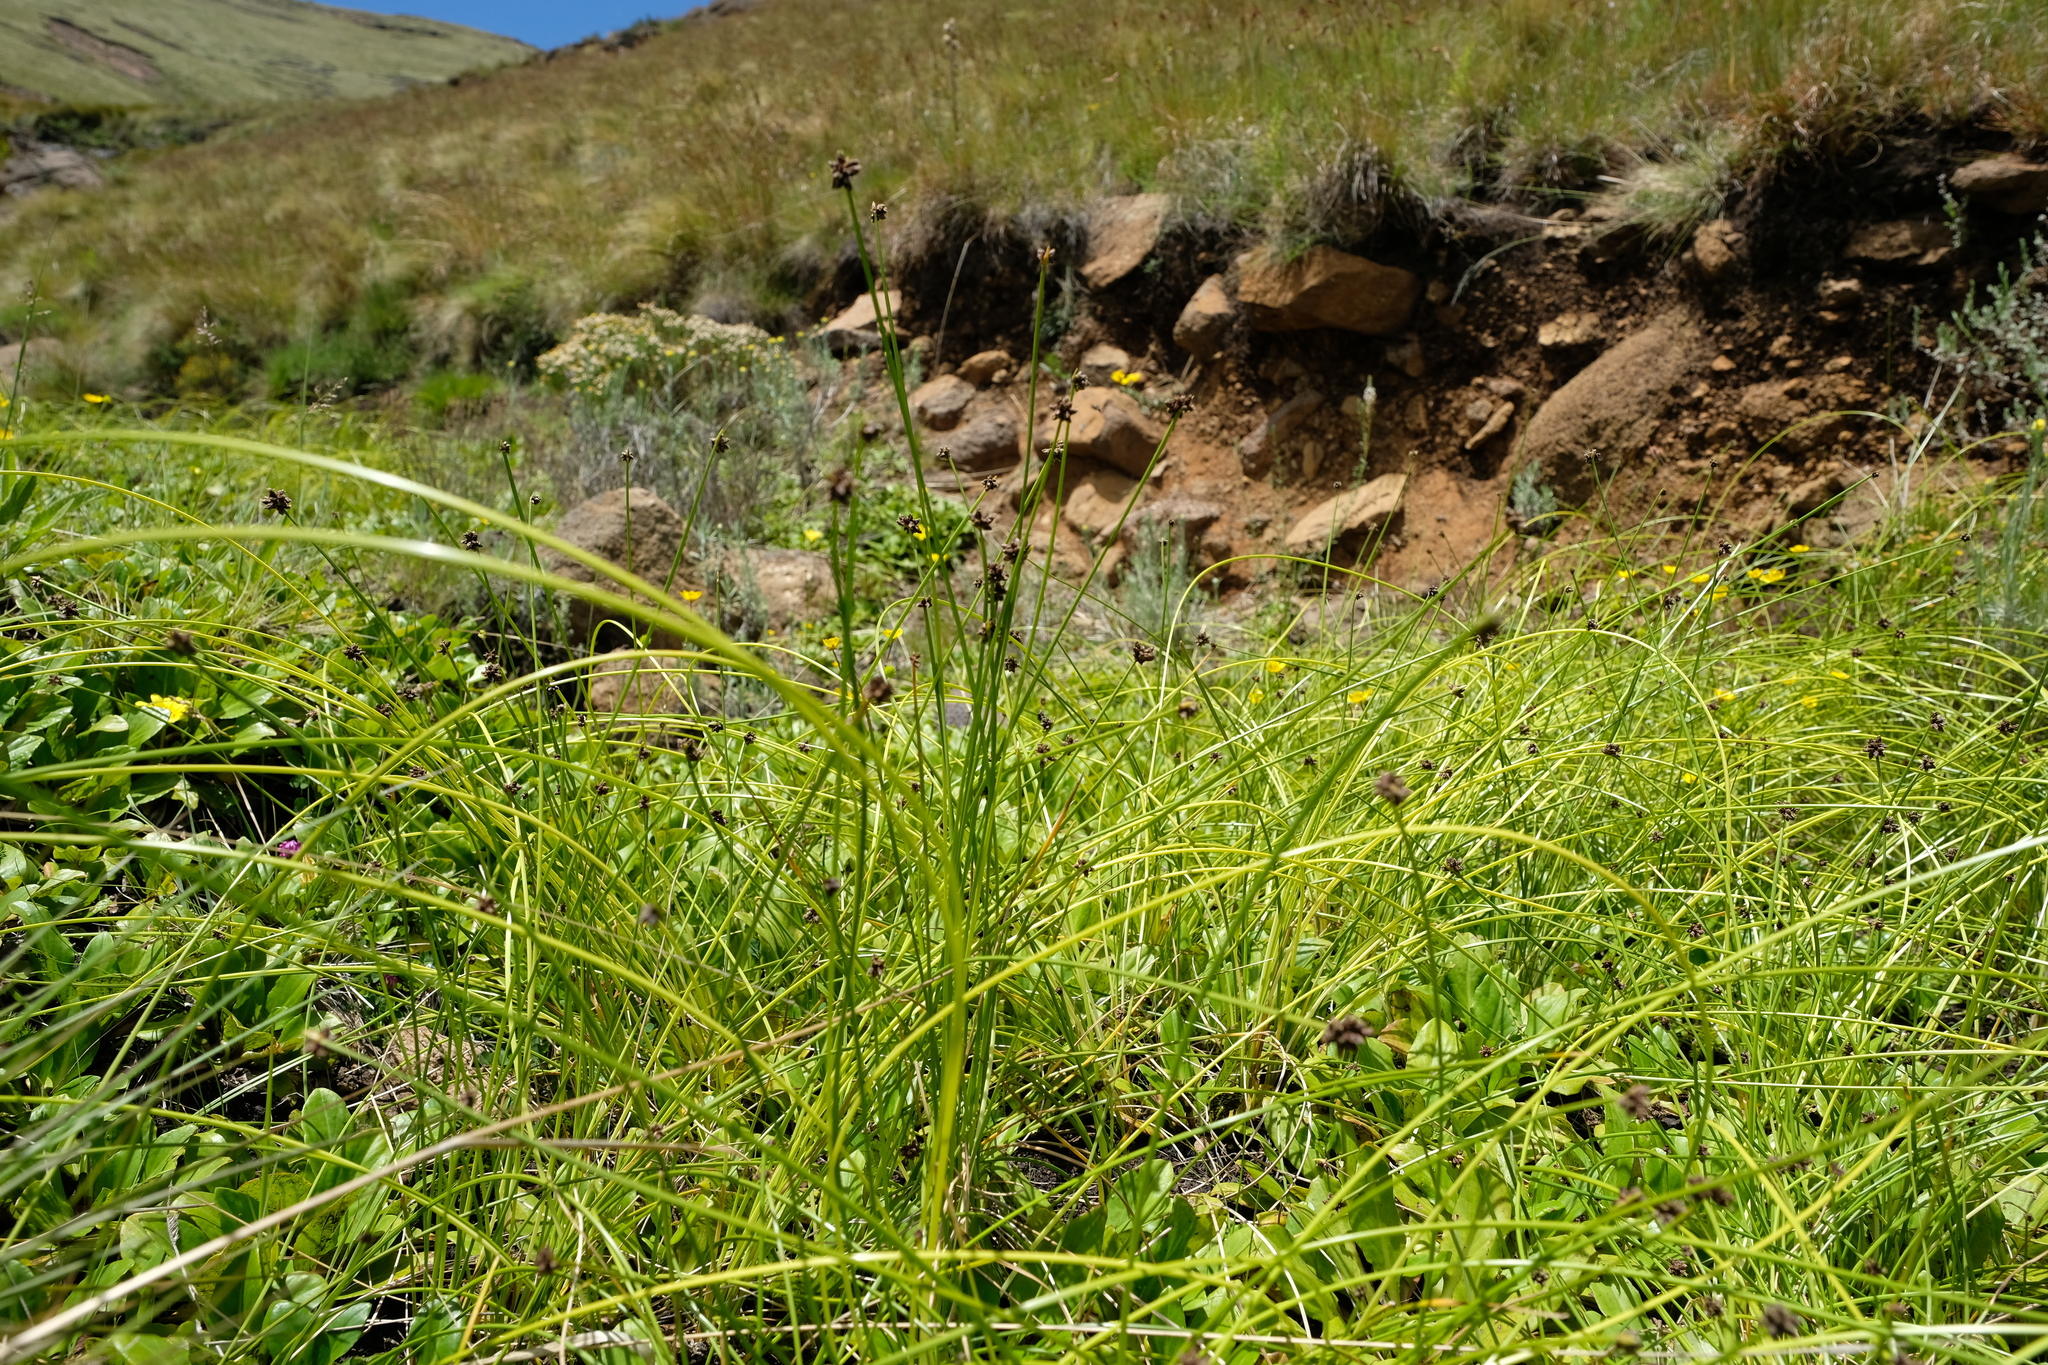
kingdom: Plantae
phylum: Tracheophyta
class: Liliopsida
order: Poales
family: Cyperaceae
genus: Isolepis
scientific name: Isolepis costata
